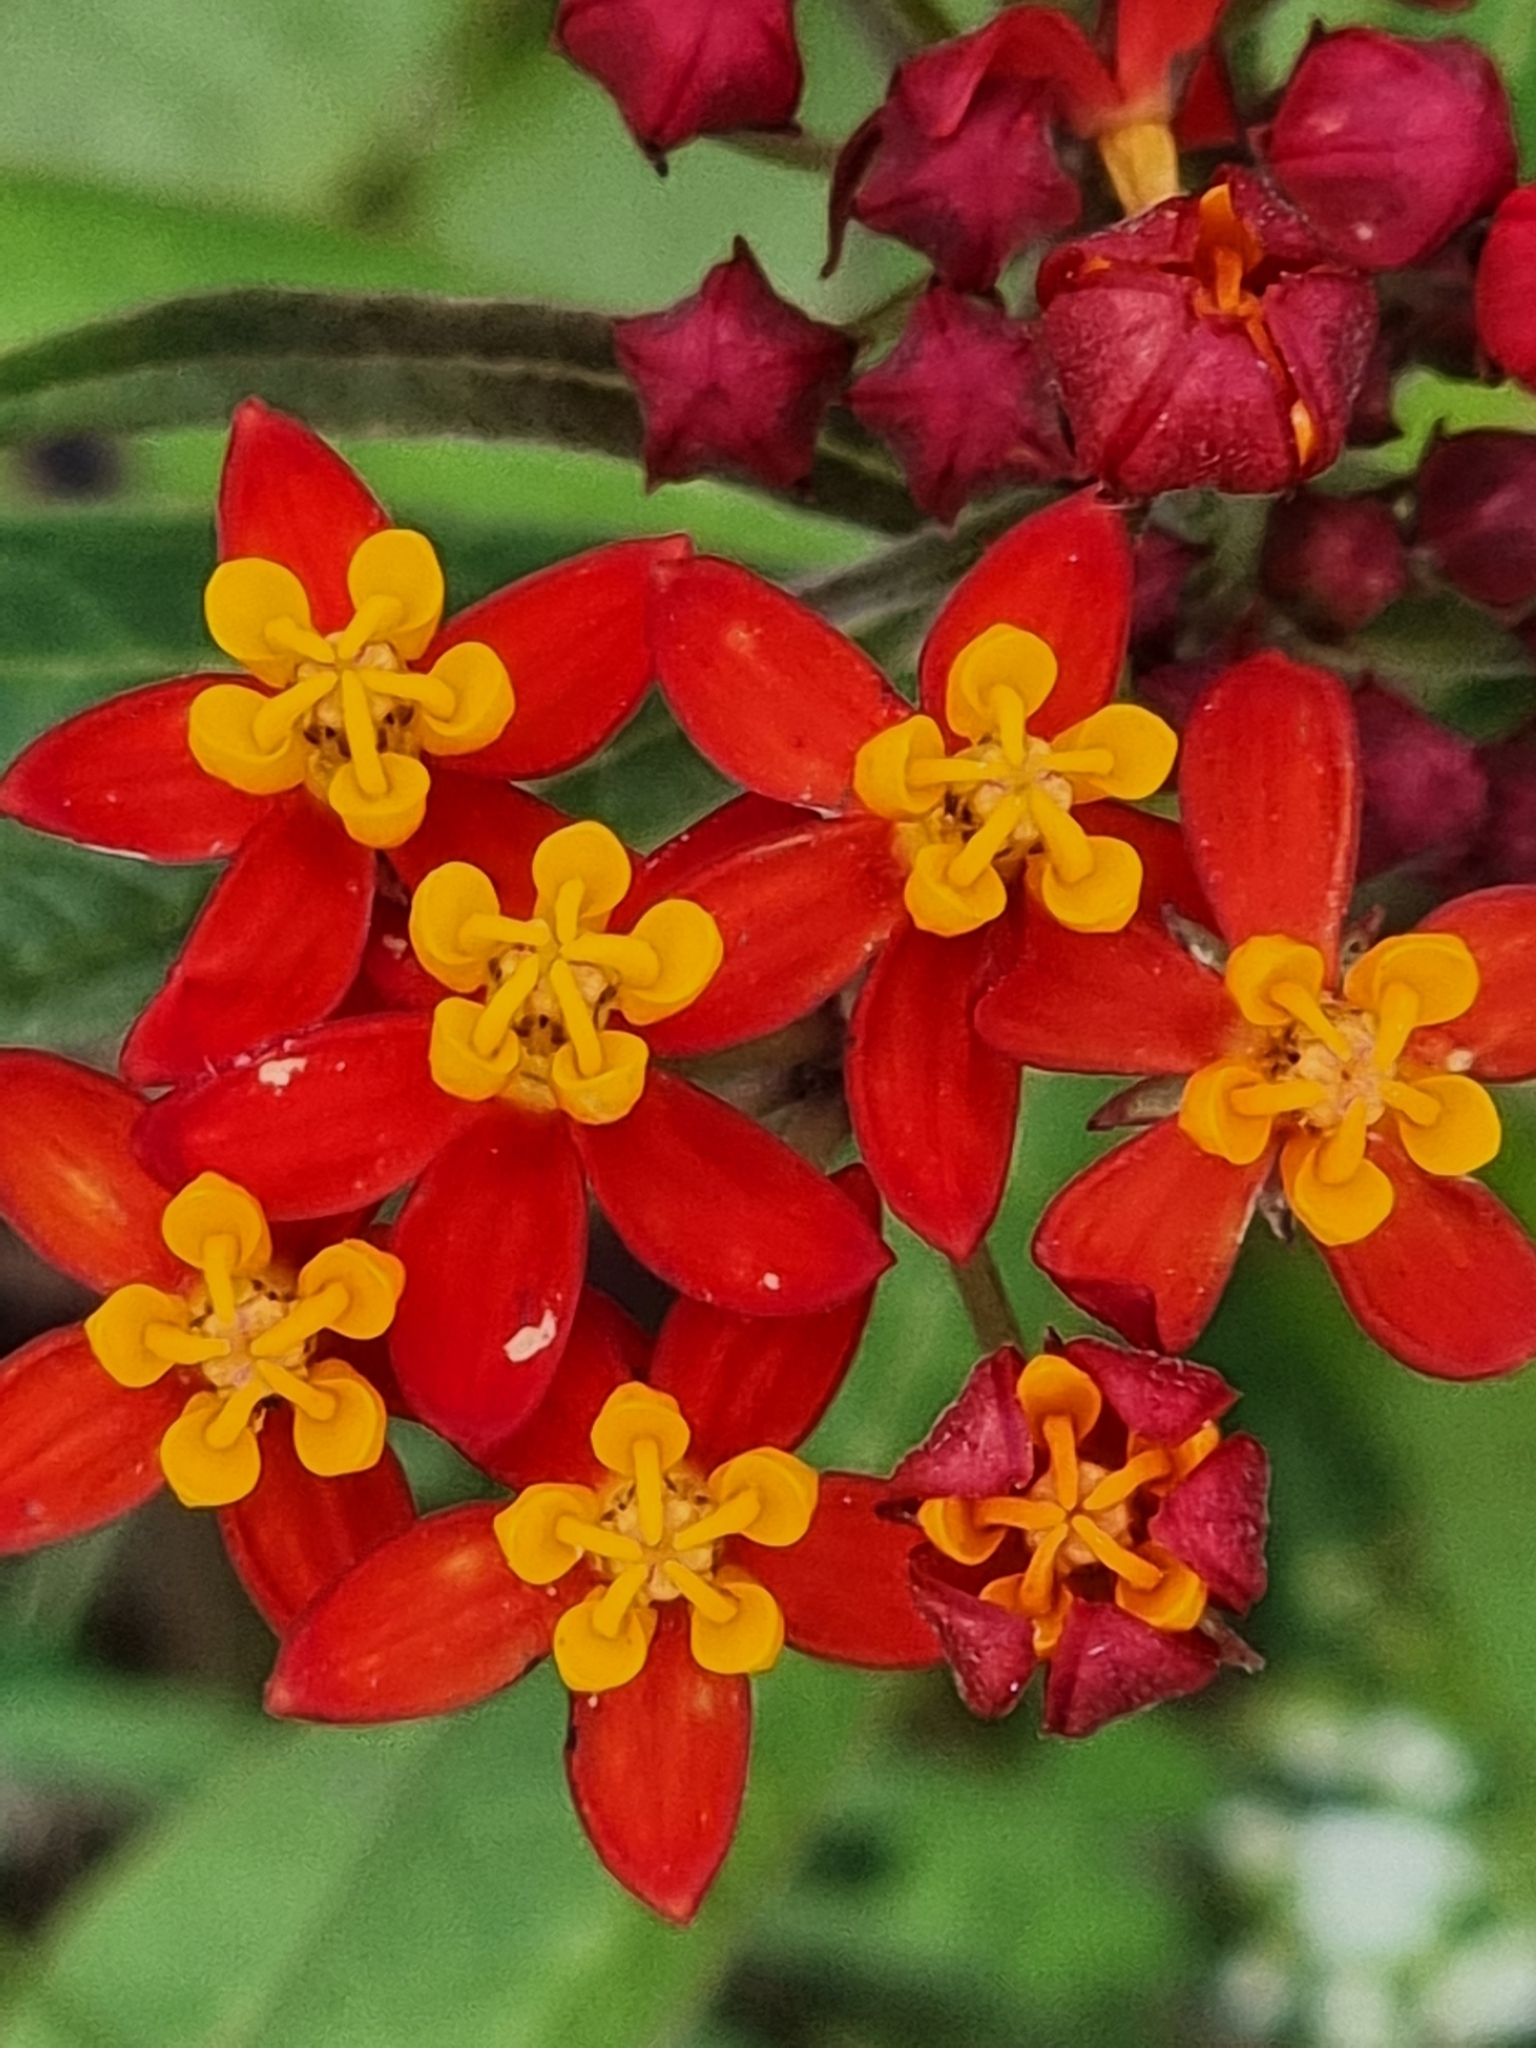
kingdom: Plantae
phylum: Tracheophyta
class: Magnoliopsida
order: Gentianales
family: Apocynaceae
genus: Asclepias
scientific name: Asclepias curassavica
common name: Bloodflower
